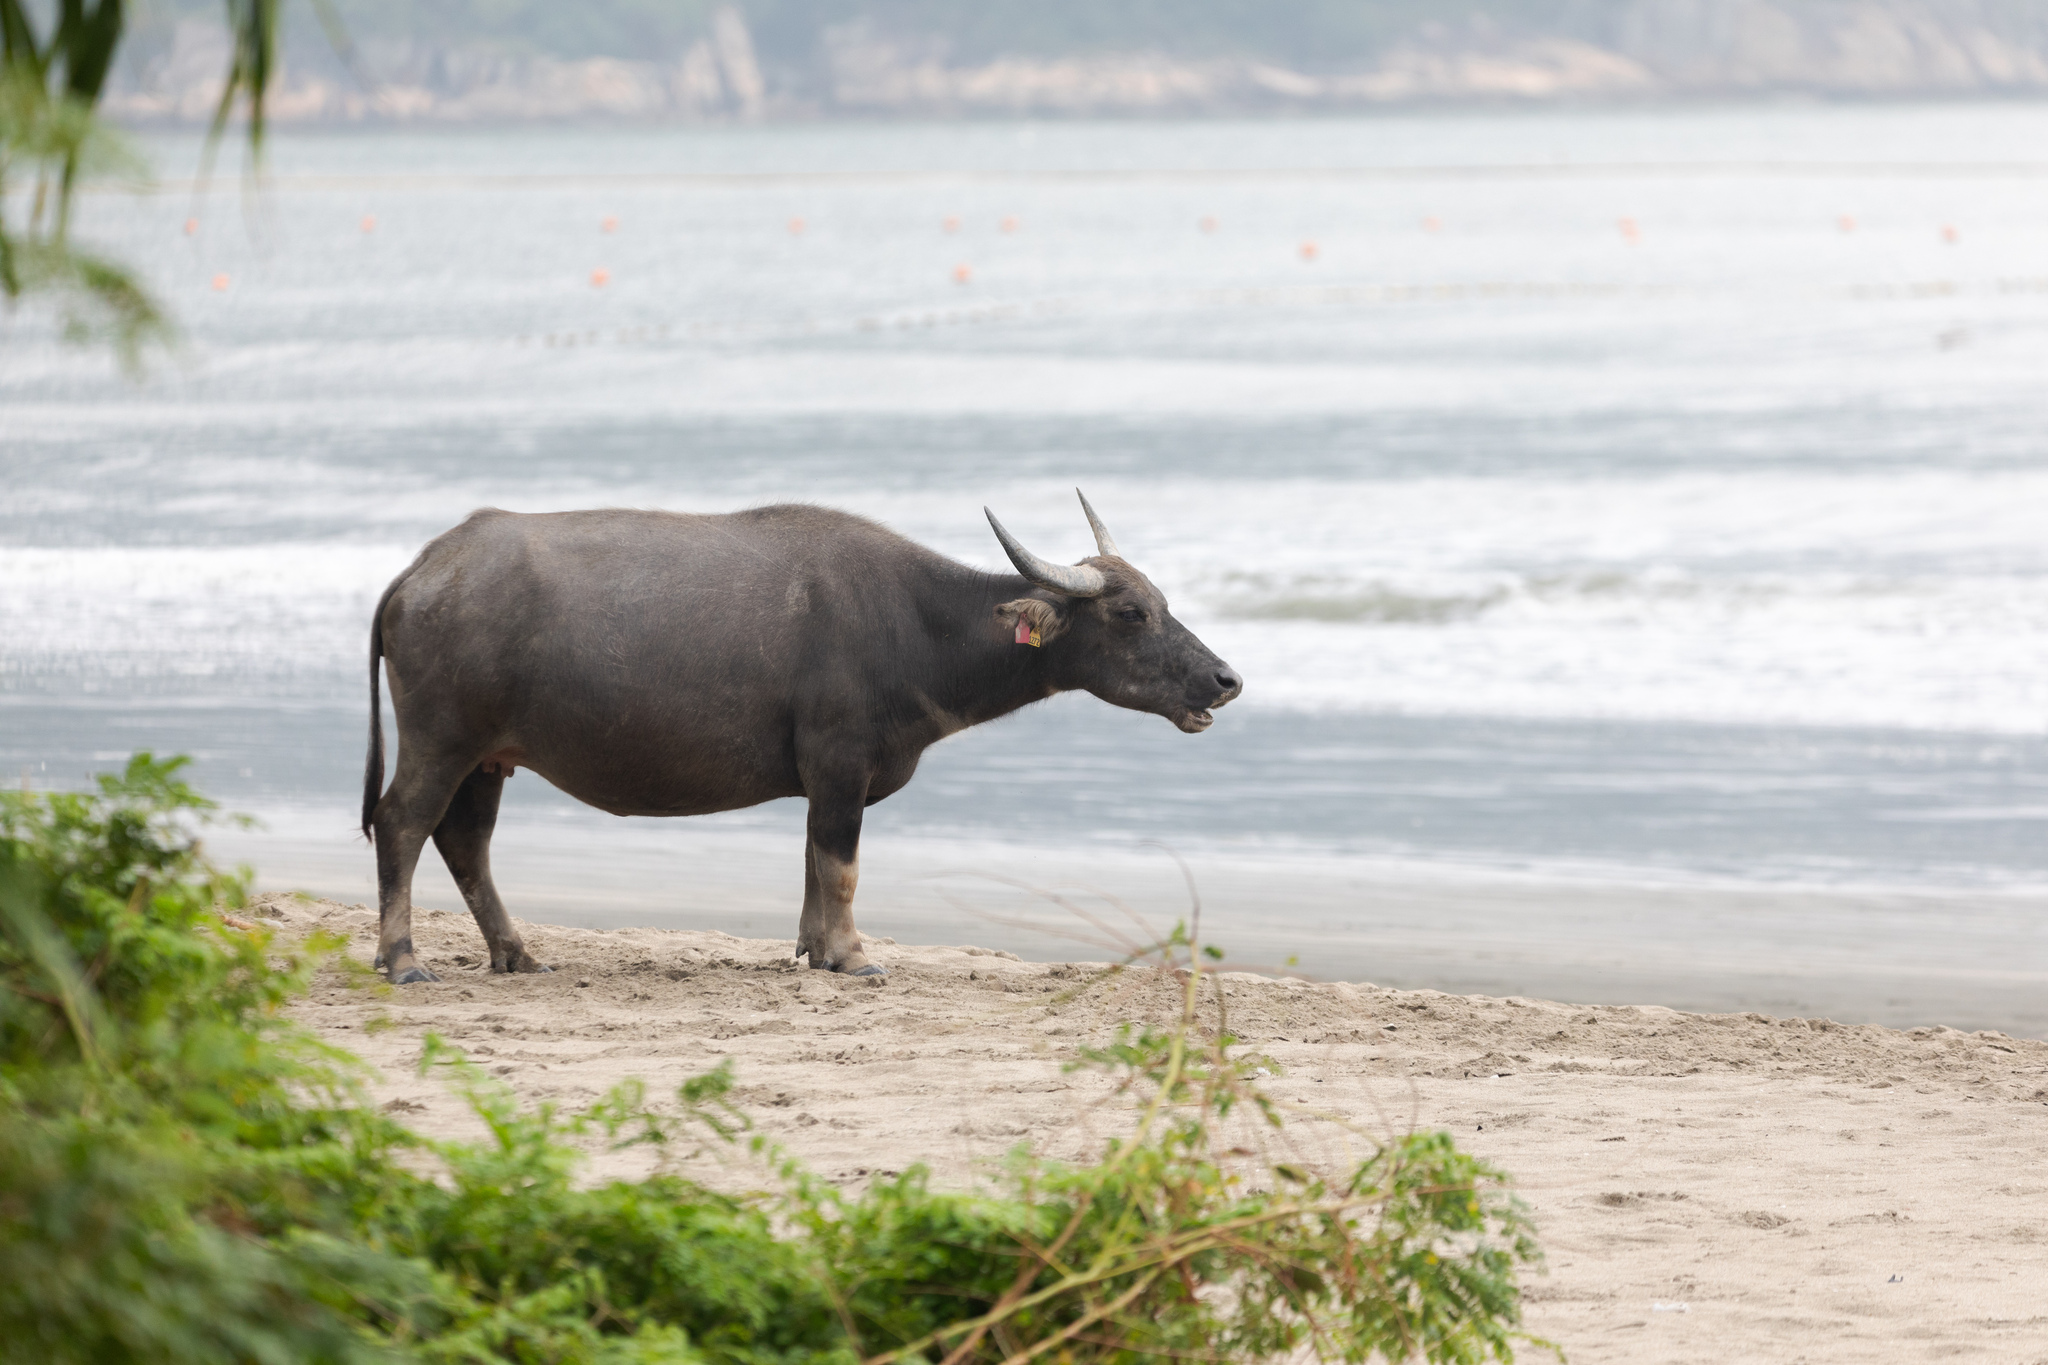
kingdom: Animalia
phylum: Chordata
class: Mammalia
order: Artiodactyla
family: Bovidae
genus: Bubalus
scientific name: Bubalus bubalis
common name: Water buffalo
